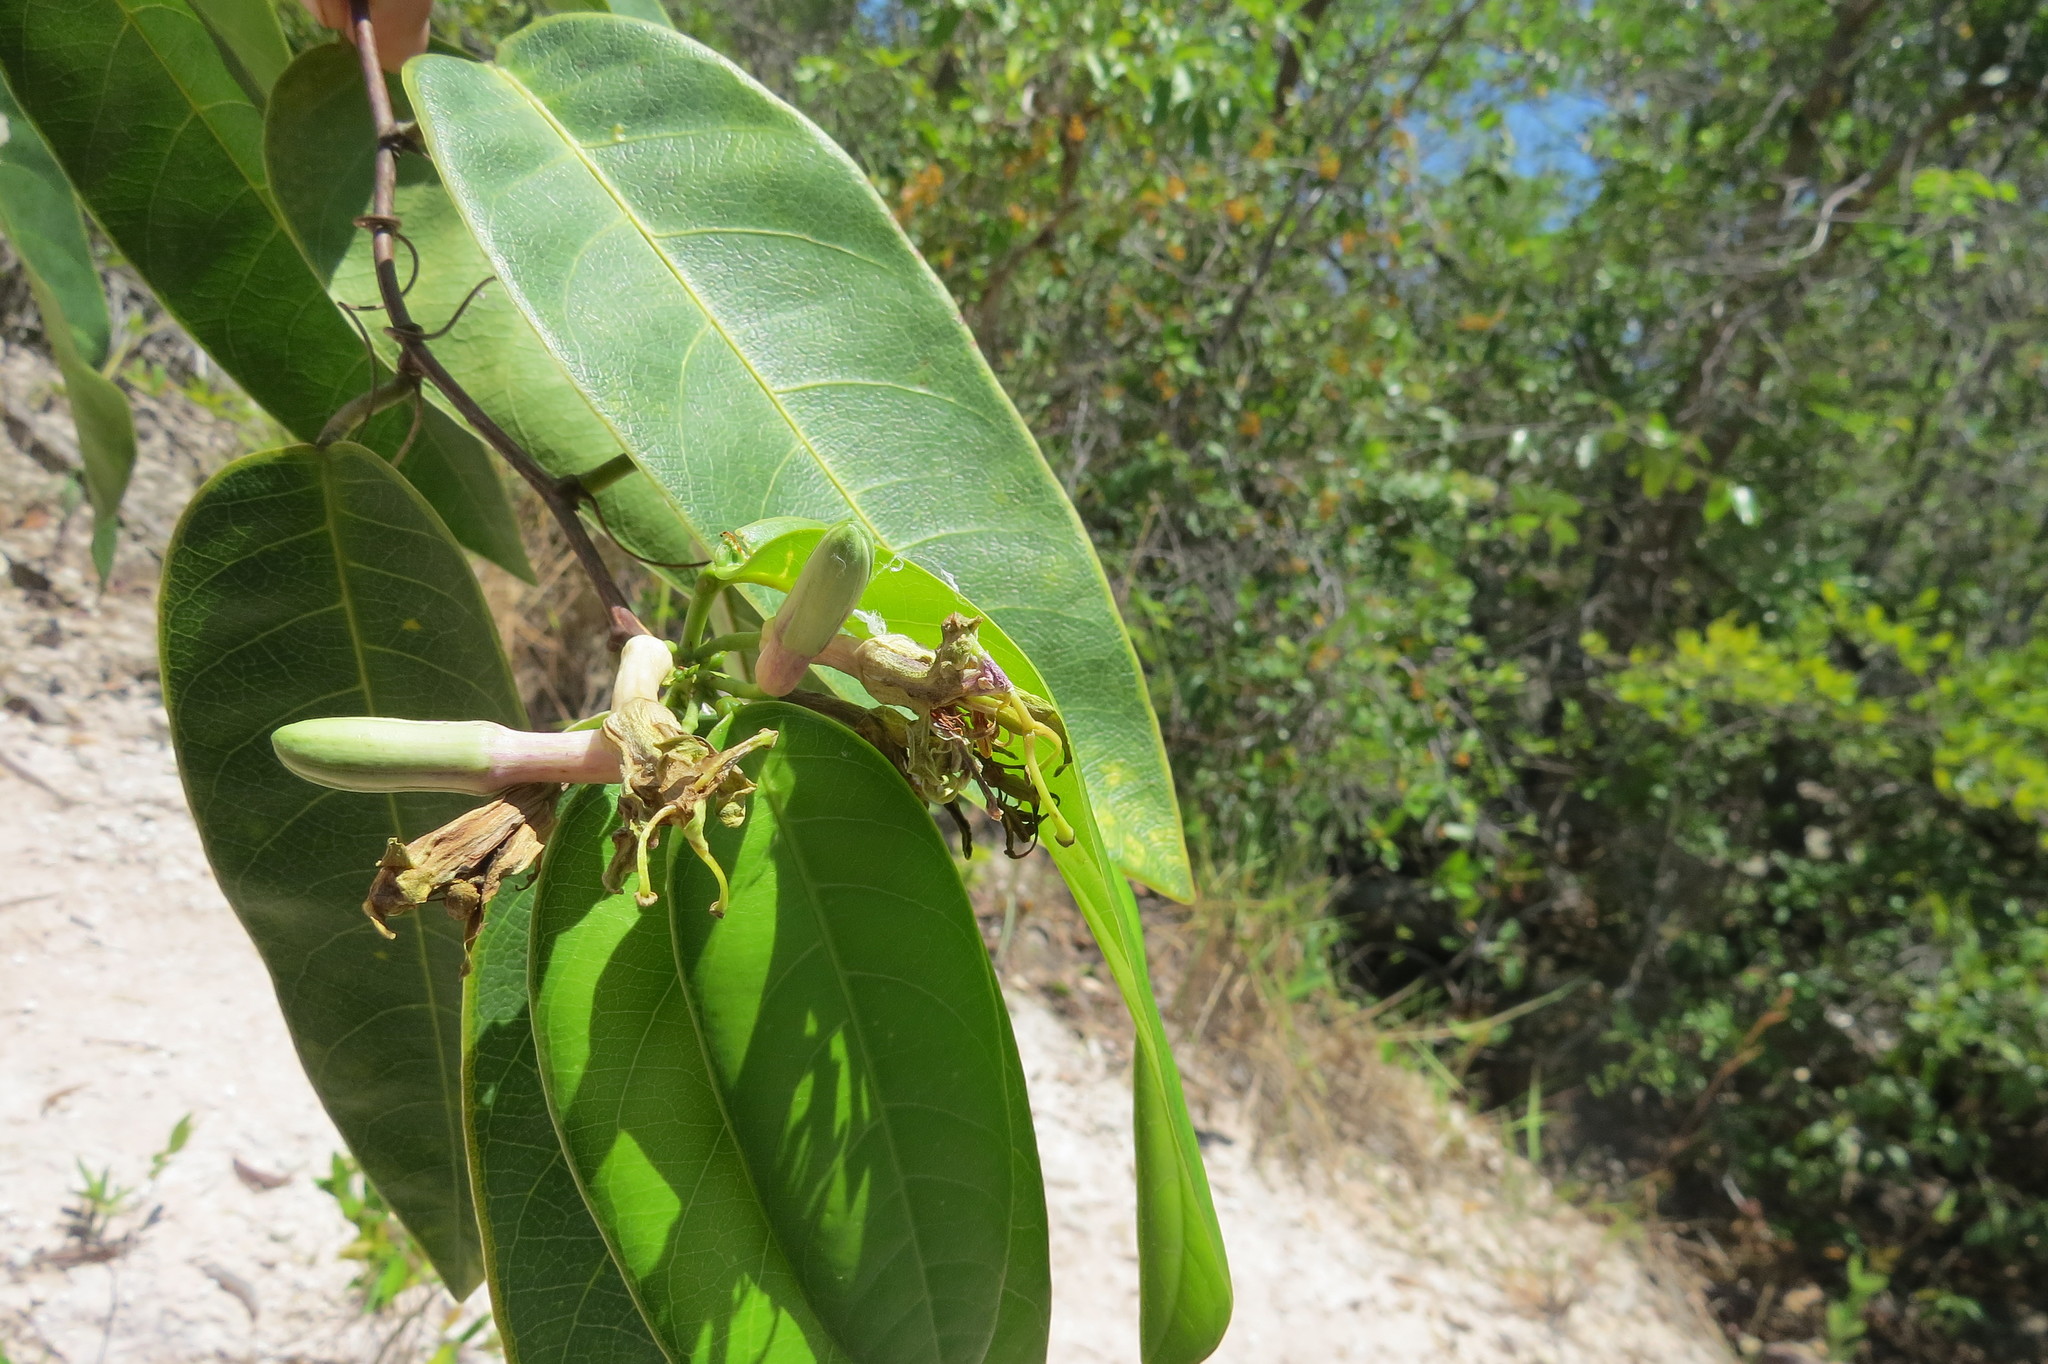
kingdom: Plantae
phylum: Tracheophyta
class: Magnoliopsida
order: Malpighiales
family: Passifloraceae
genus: Passiflora
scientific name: Passiflora cerradensis
